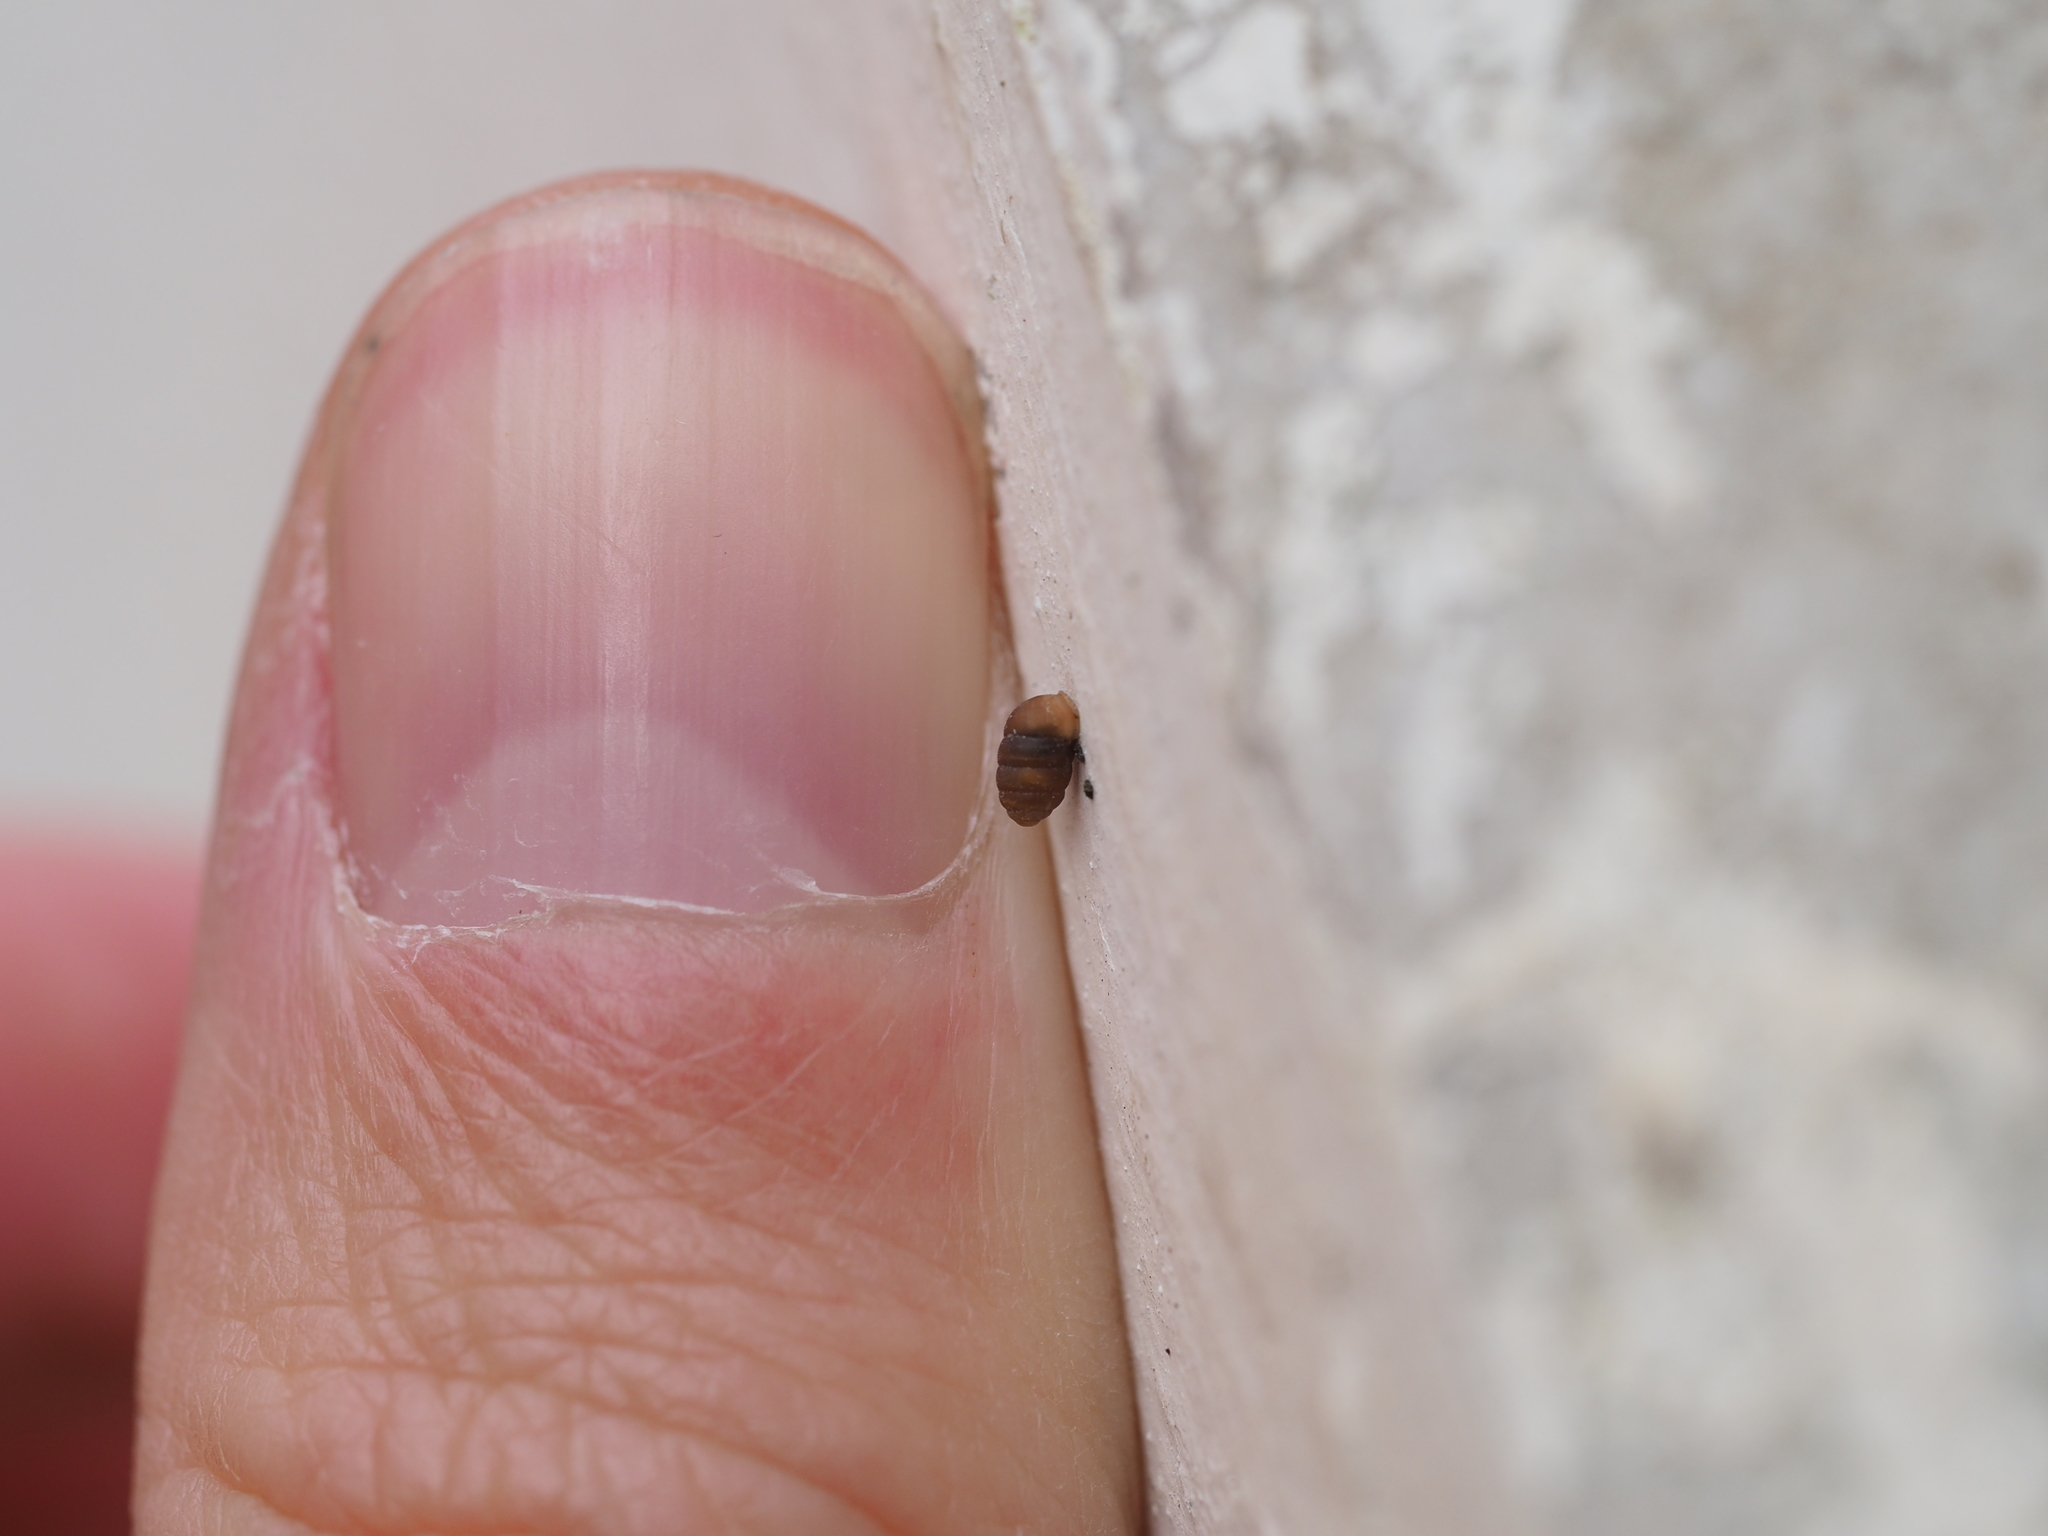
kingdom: Animalia
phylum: Mollusca
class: Gastropoda
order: Stylommatophora
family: Pupillidae
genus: Pupilla
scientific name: Pupilla muscorum
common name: Moss chrysalis snail
